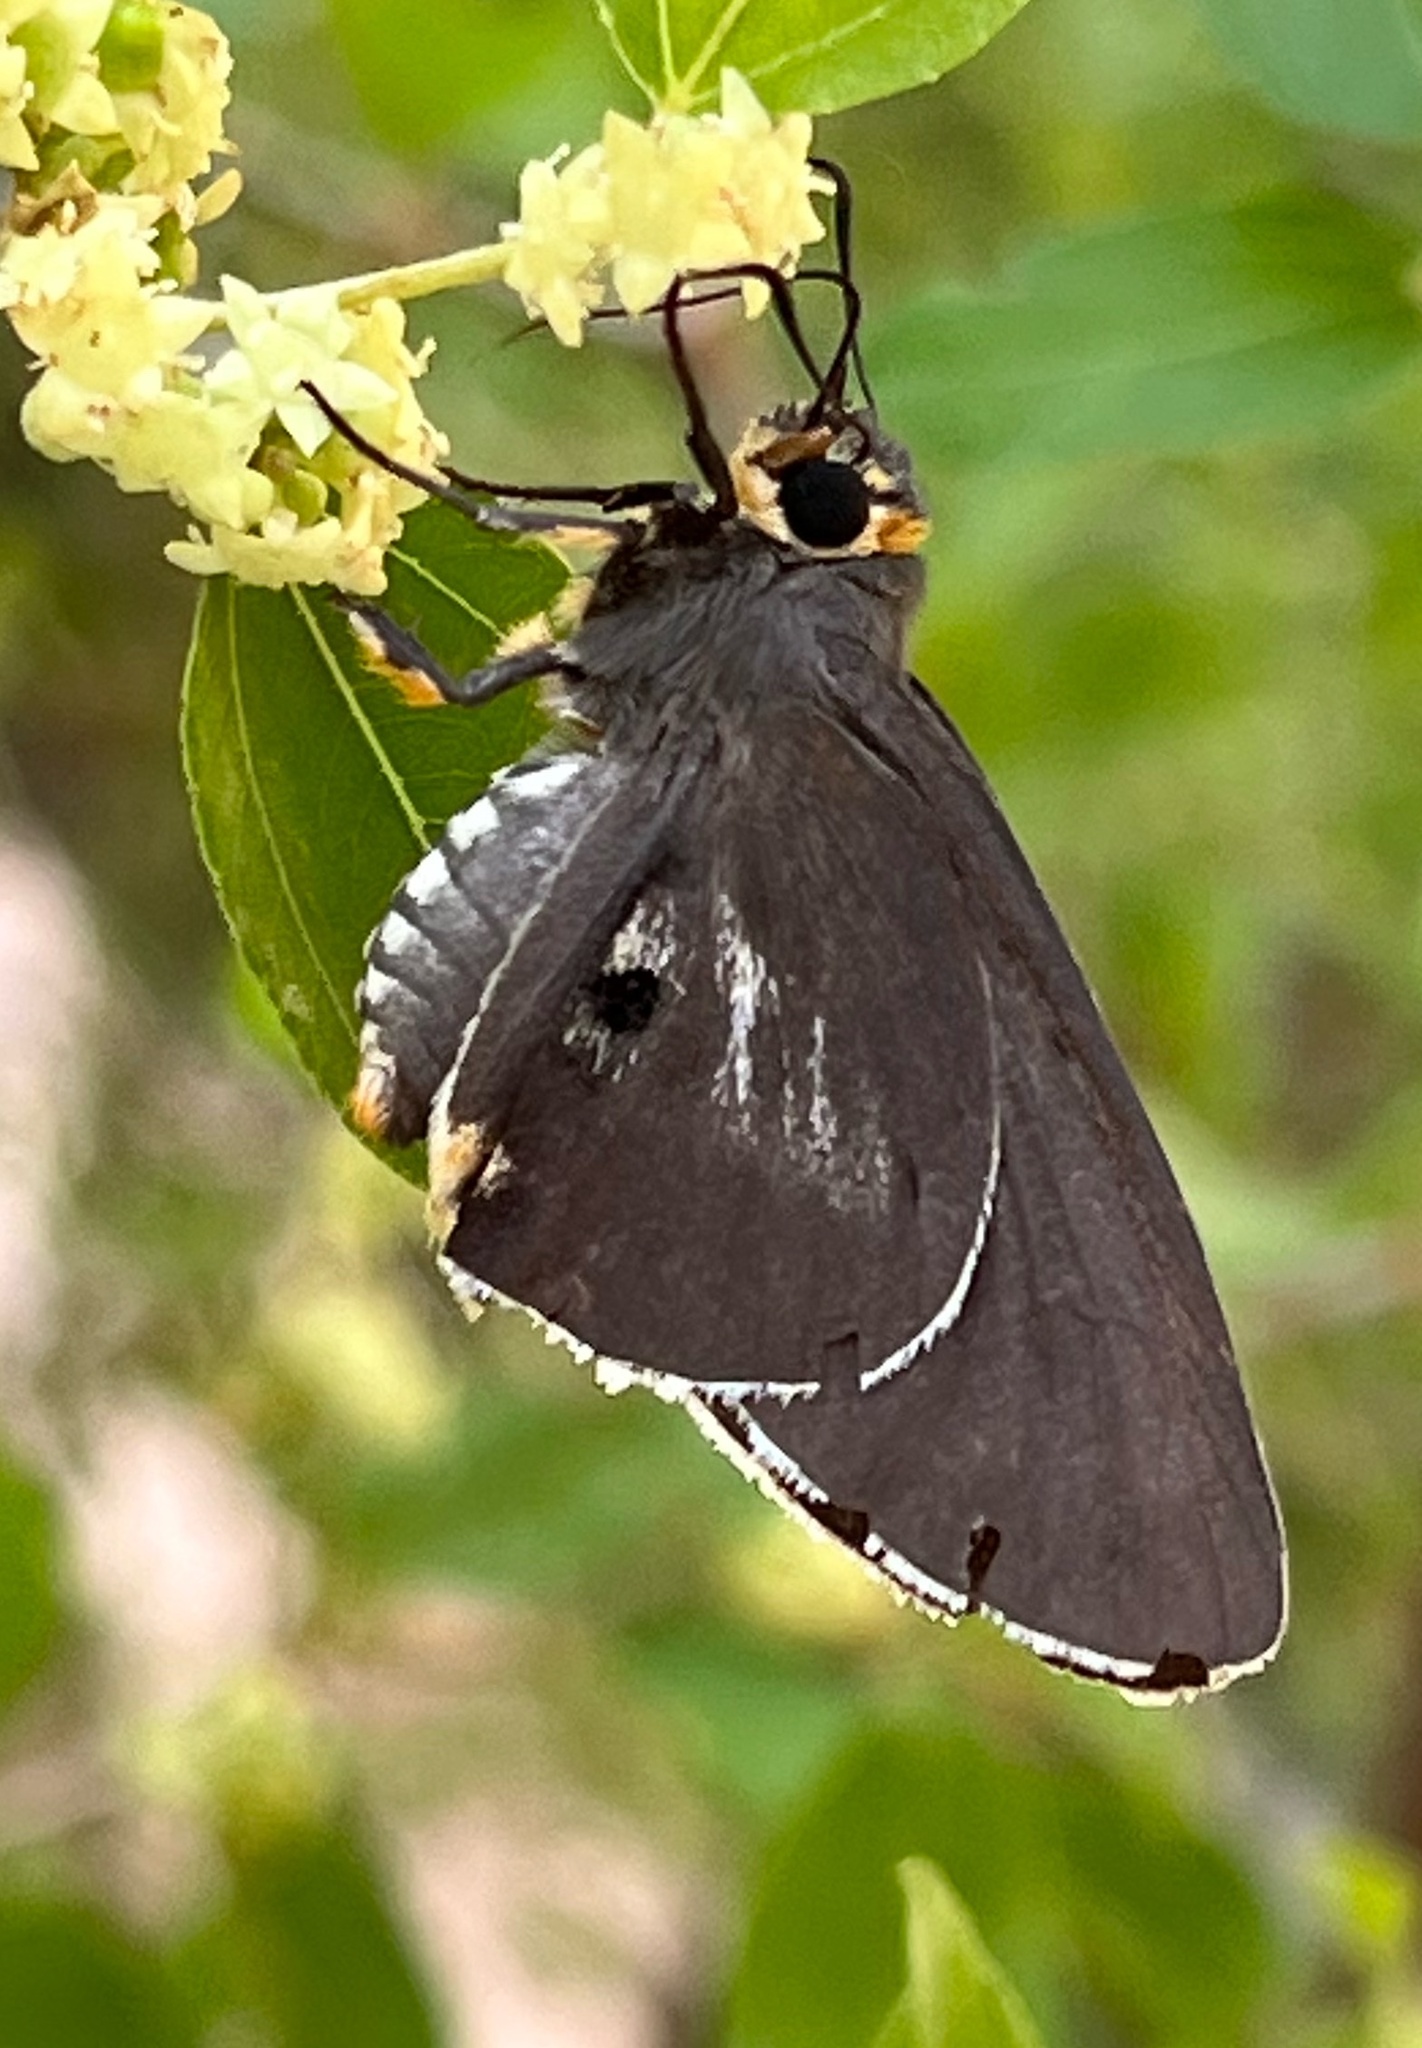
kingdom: Animalia
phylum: Arthropoda
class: Insecta
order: Lepidoptera
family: Hesperiidae
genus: Coeliades
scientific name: Coeliades anchises
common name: One-pip policeman
